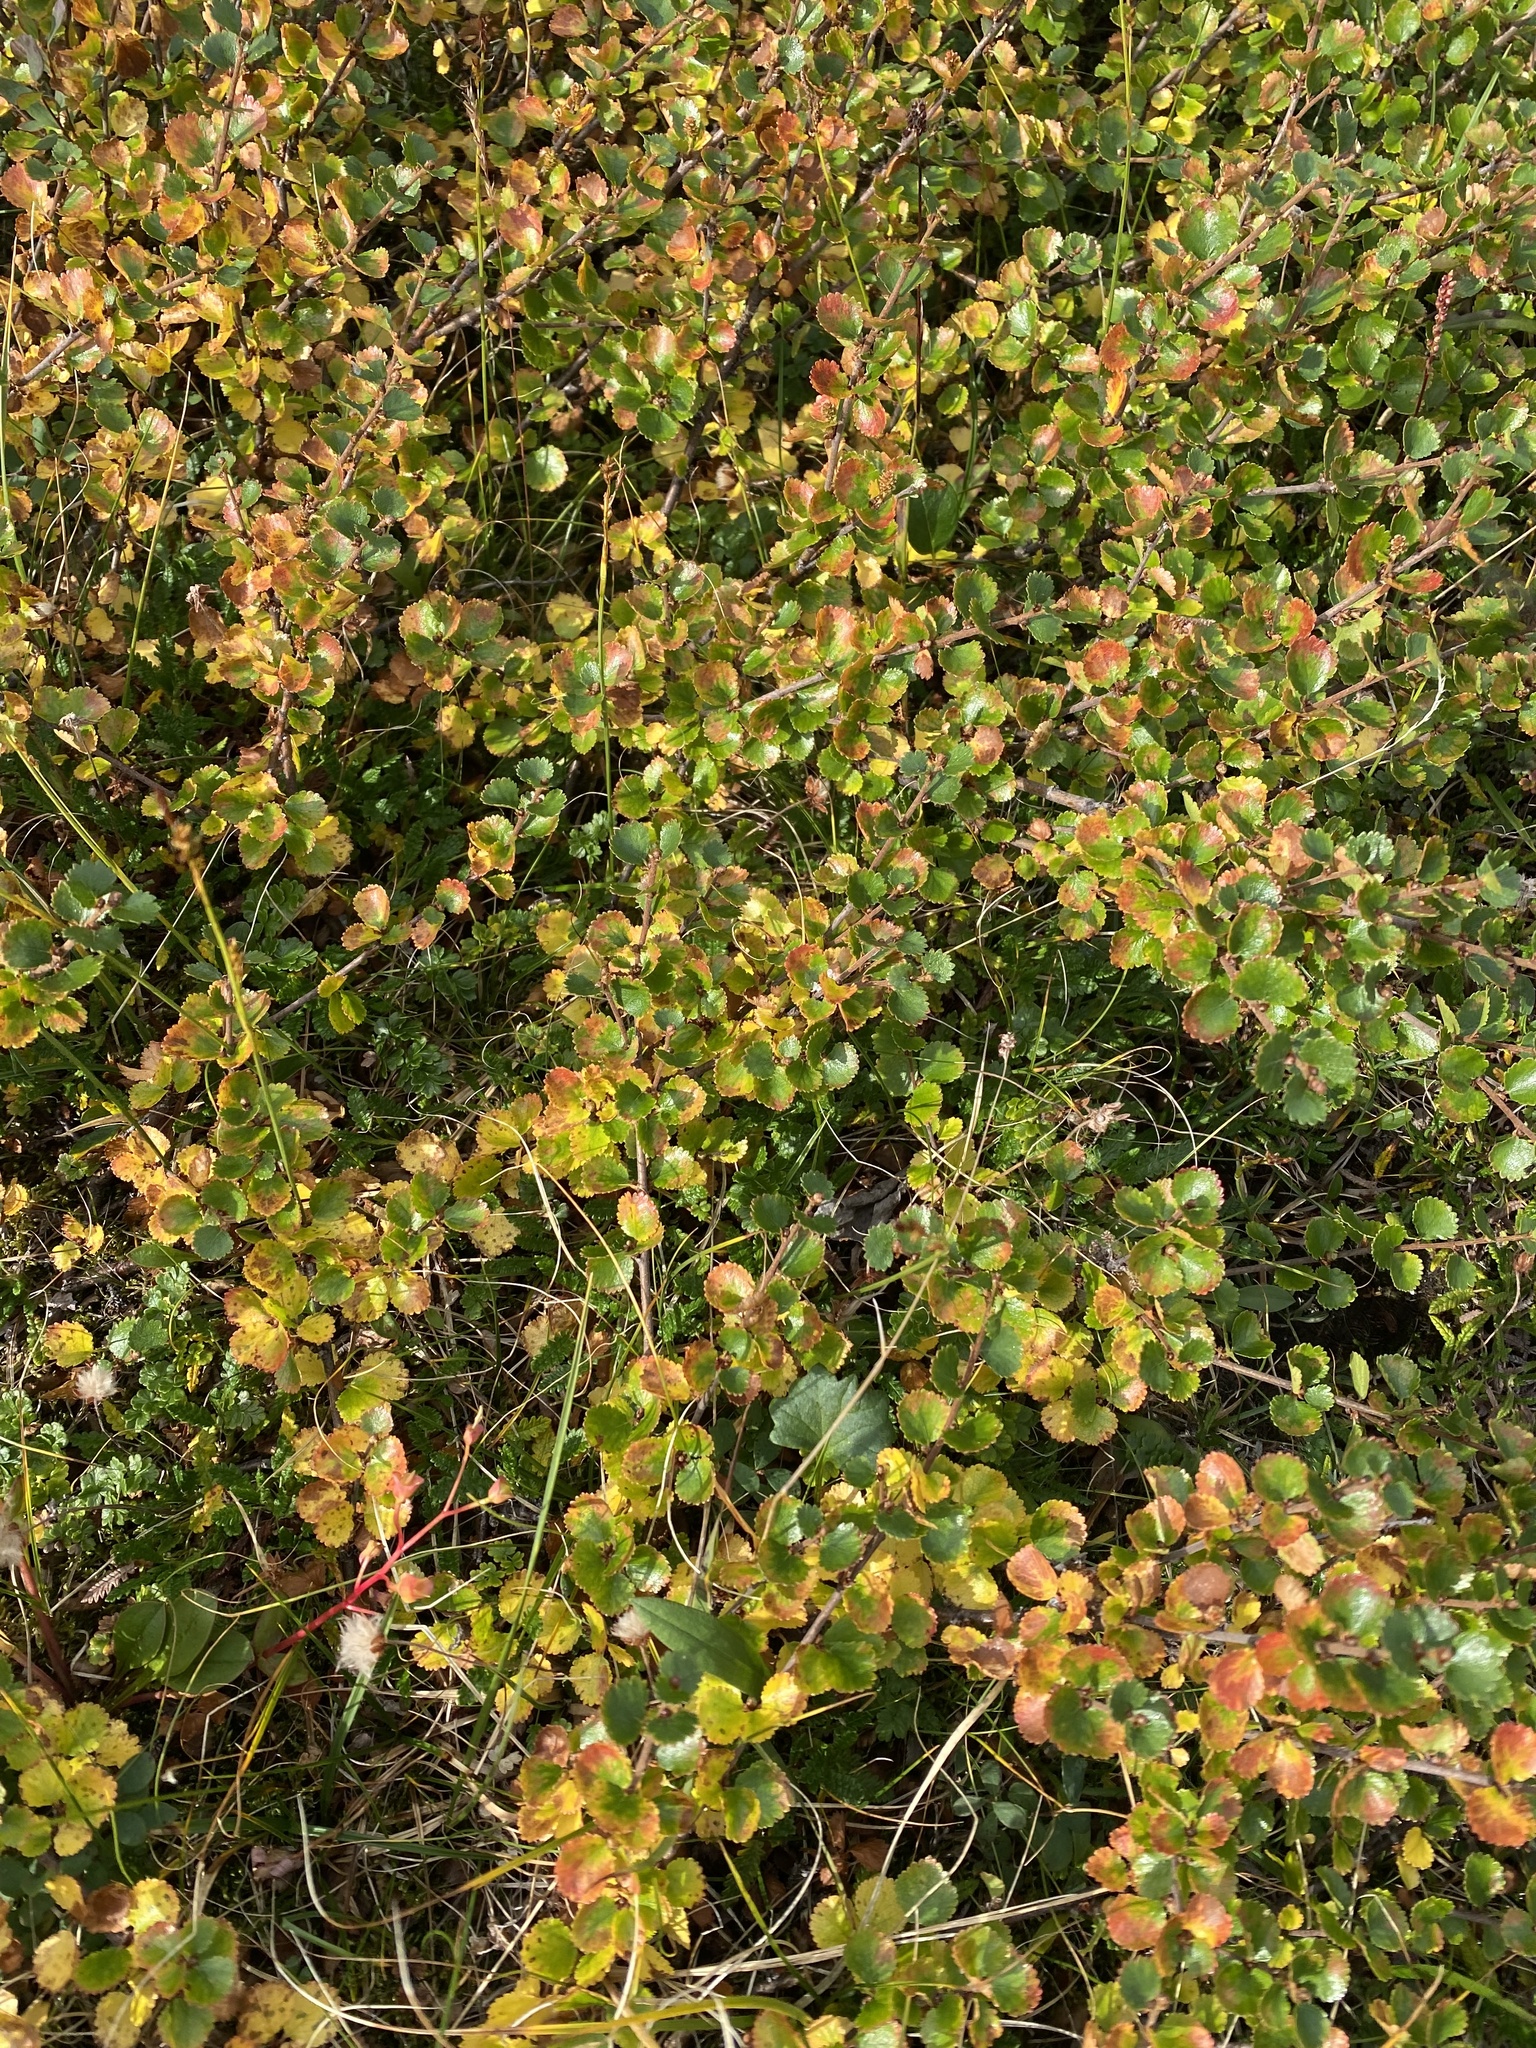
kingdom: Plantae
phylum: Tracheophyta
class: Magnoliopsida
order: Fagales
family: Betulaceae
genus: Betula
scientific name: Betula nana
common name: Arctic dwarf birch
